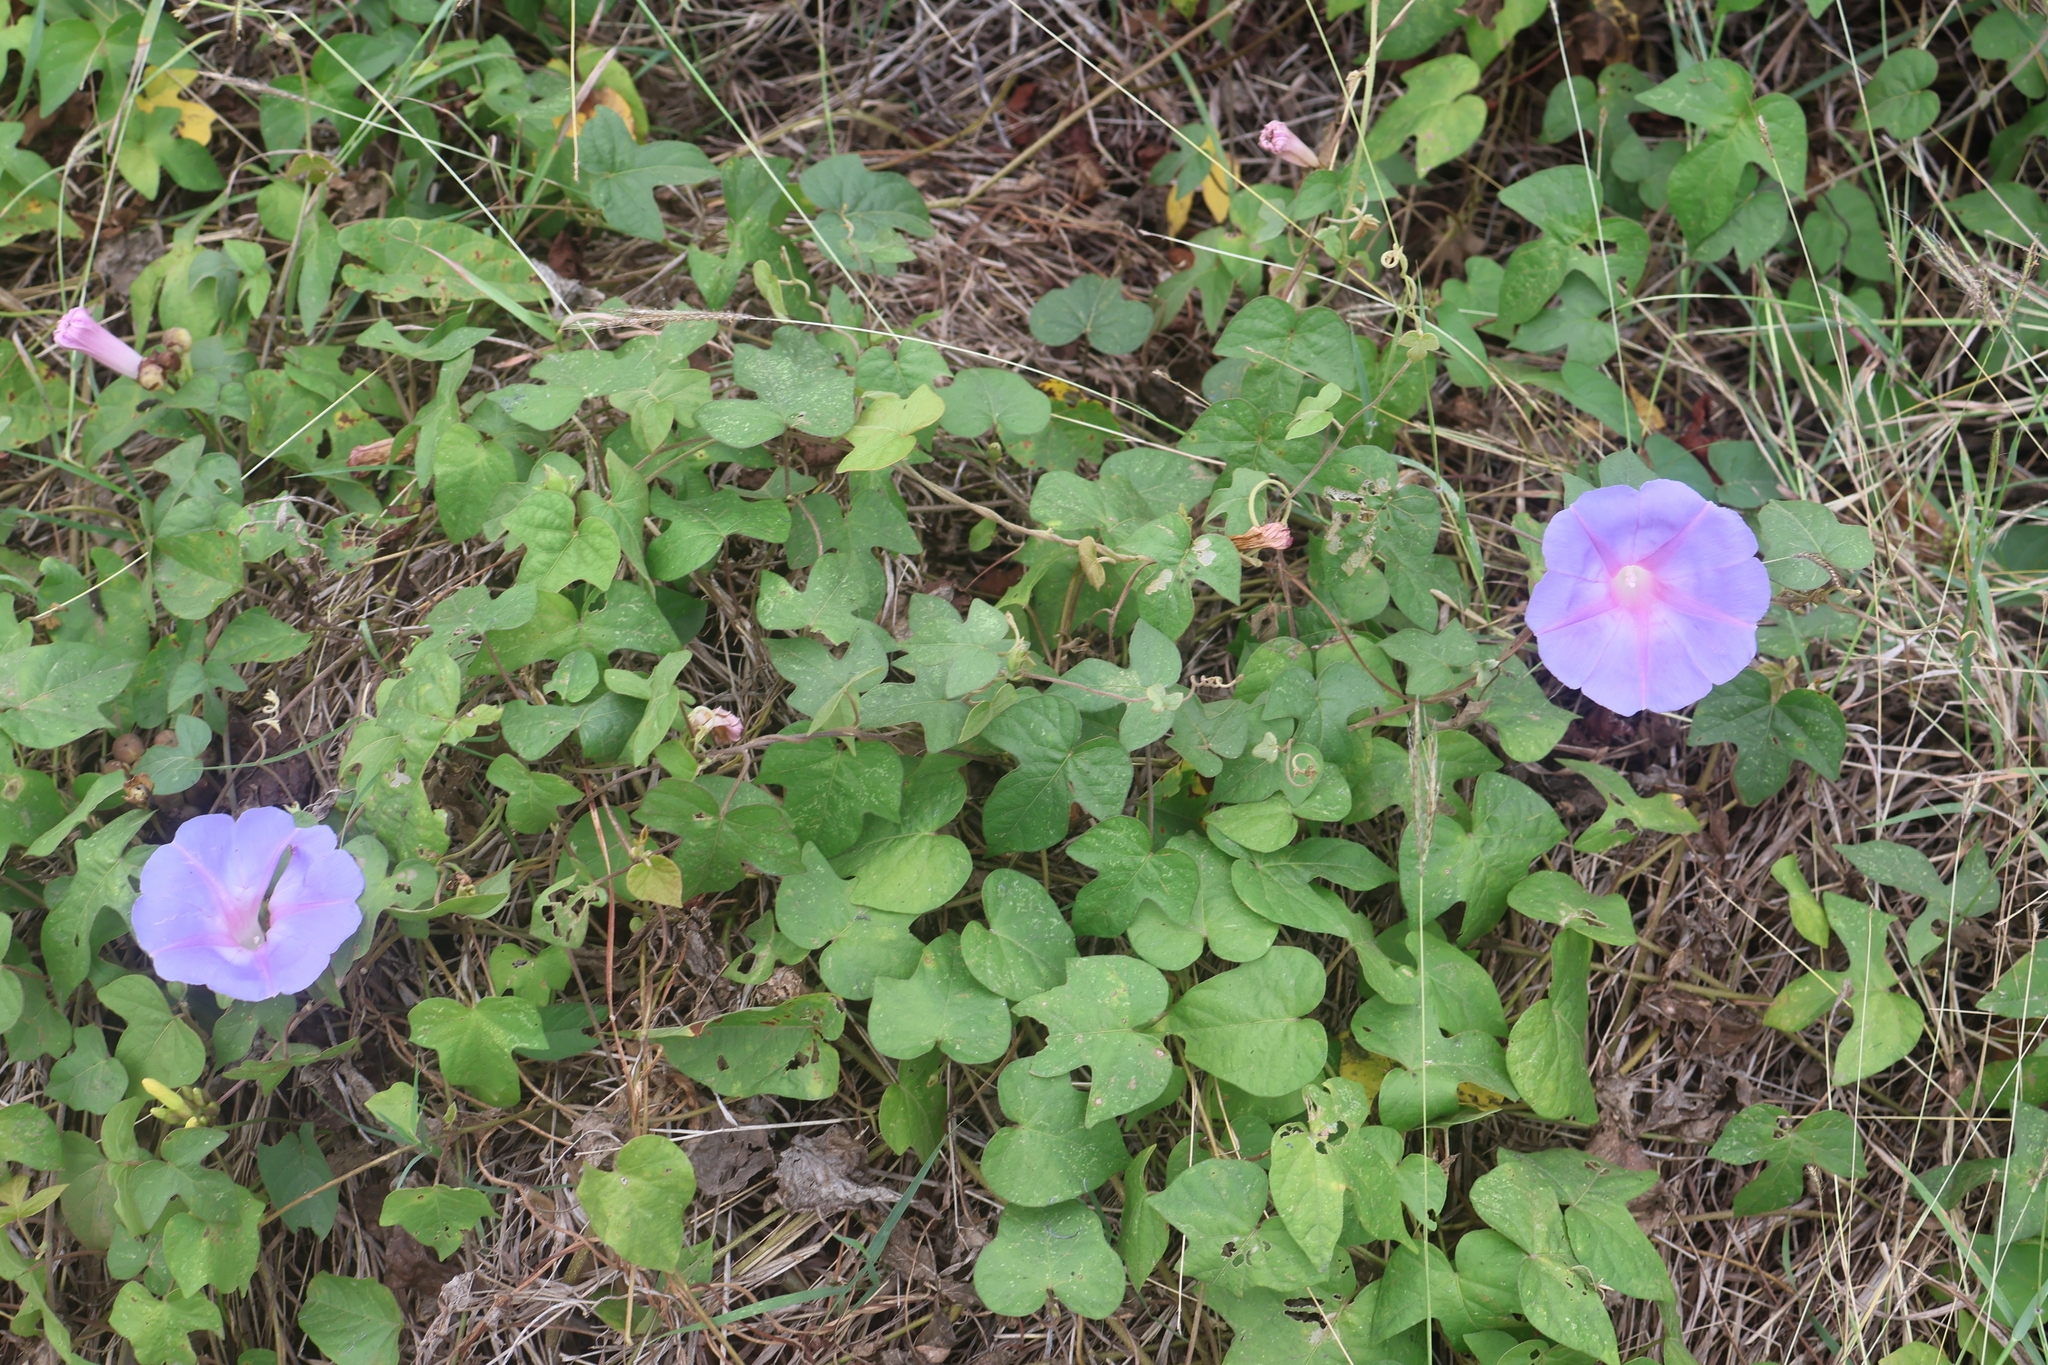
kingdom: Plantae
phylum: Tracheophyta
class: Magnoliopsida
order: Solanales
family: Convolvulaceae
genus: Ipomoea
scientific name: Ipomoea indica
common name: Blue dawnflower
